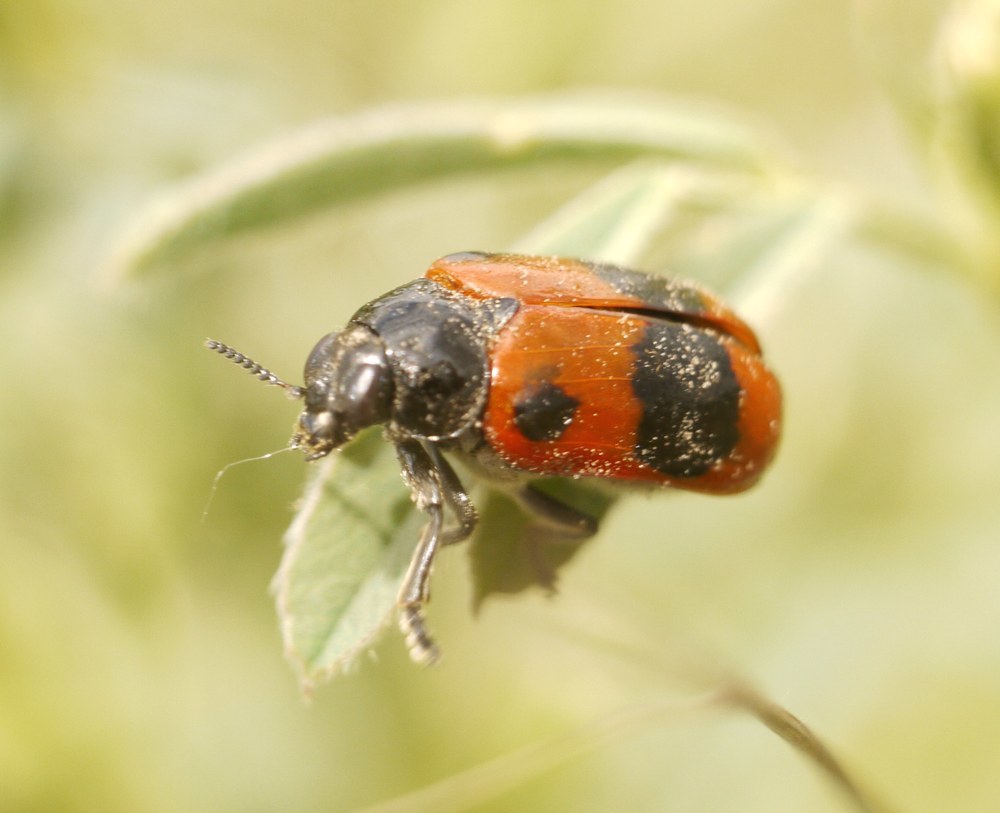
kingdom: Animalia
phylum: Arthropoda
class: Insecta
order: Coleoptera
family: Chrysomelidae
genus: Clytra
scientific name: Clytra laeviuscula
